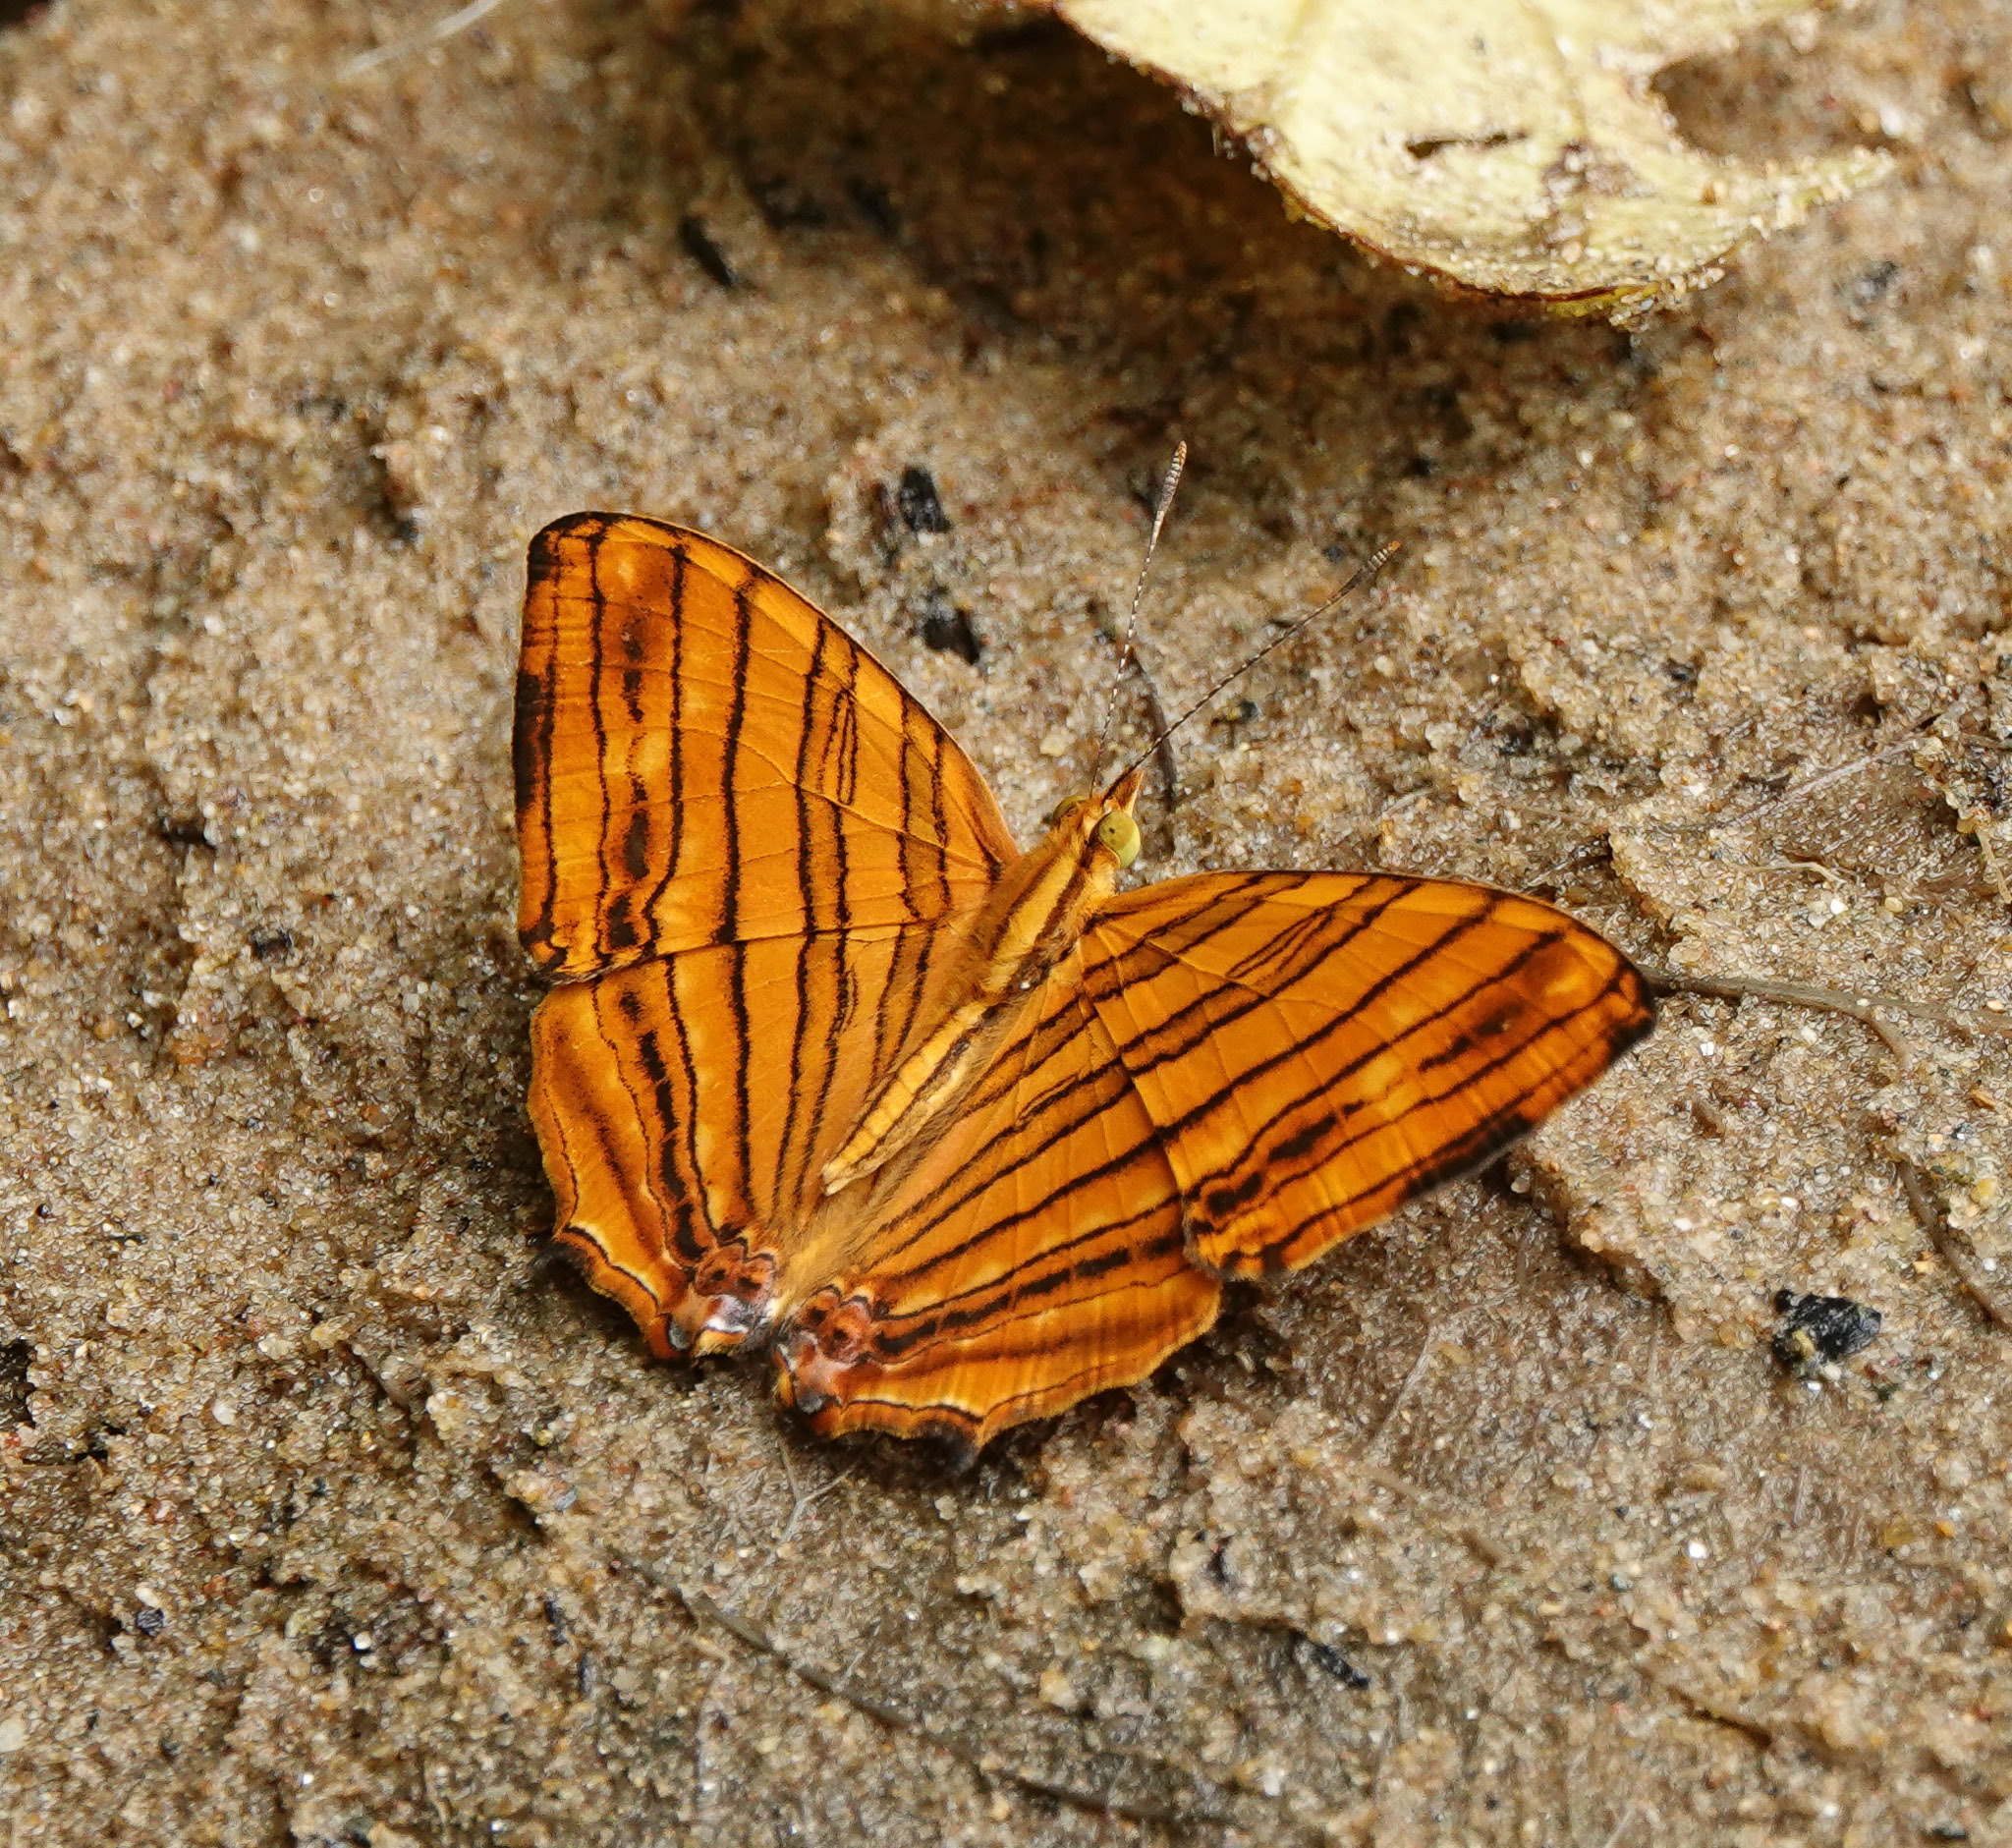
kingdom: Animalia
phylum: Arthropoda
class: Insecta
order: Lepidoptera
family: Nymphalidae
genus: Chersonesia
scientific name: Chersonesia risa
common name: Common maplet
